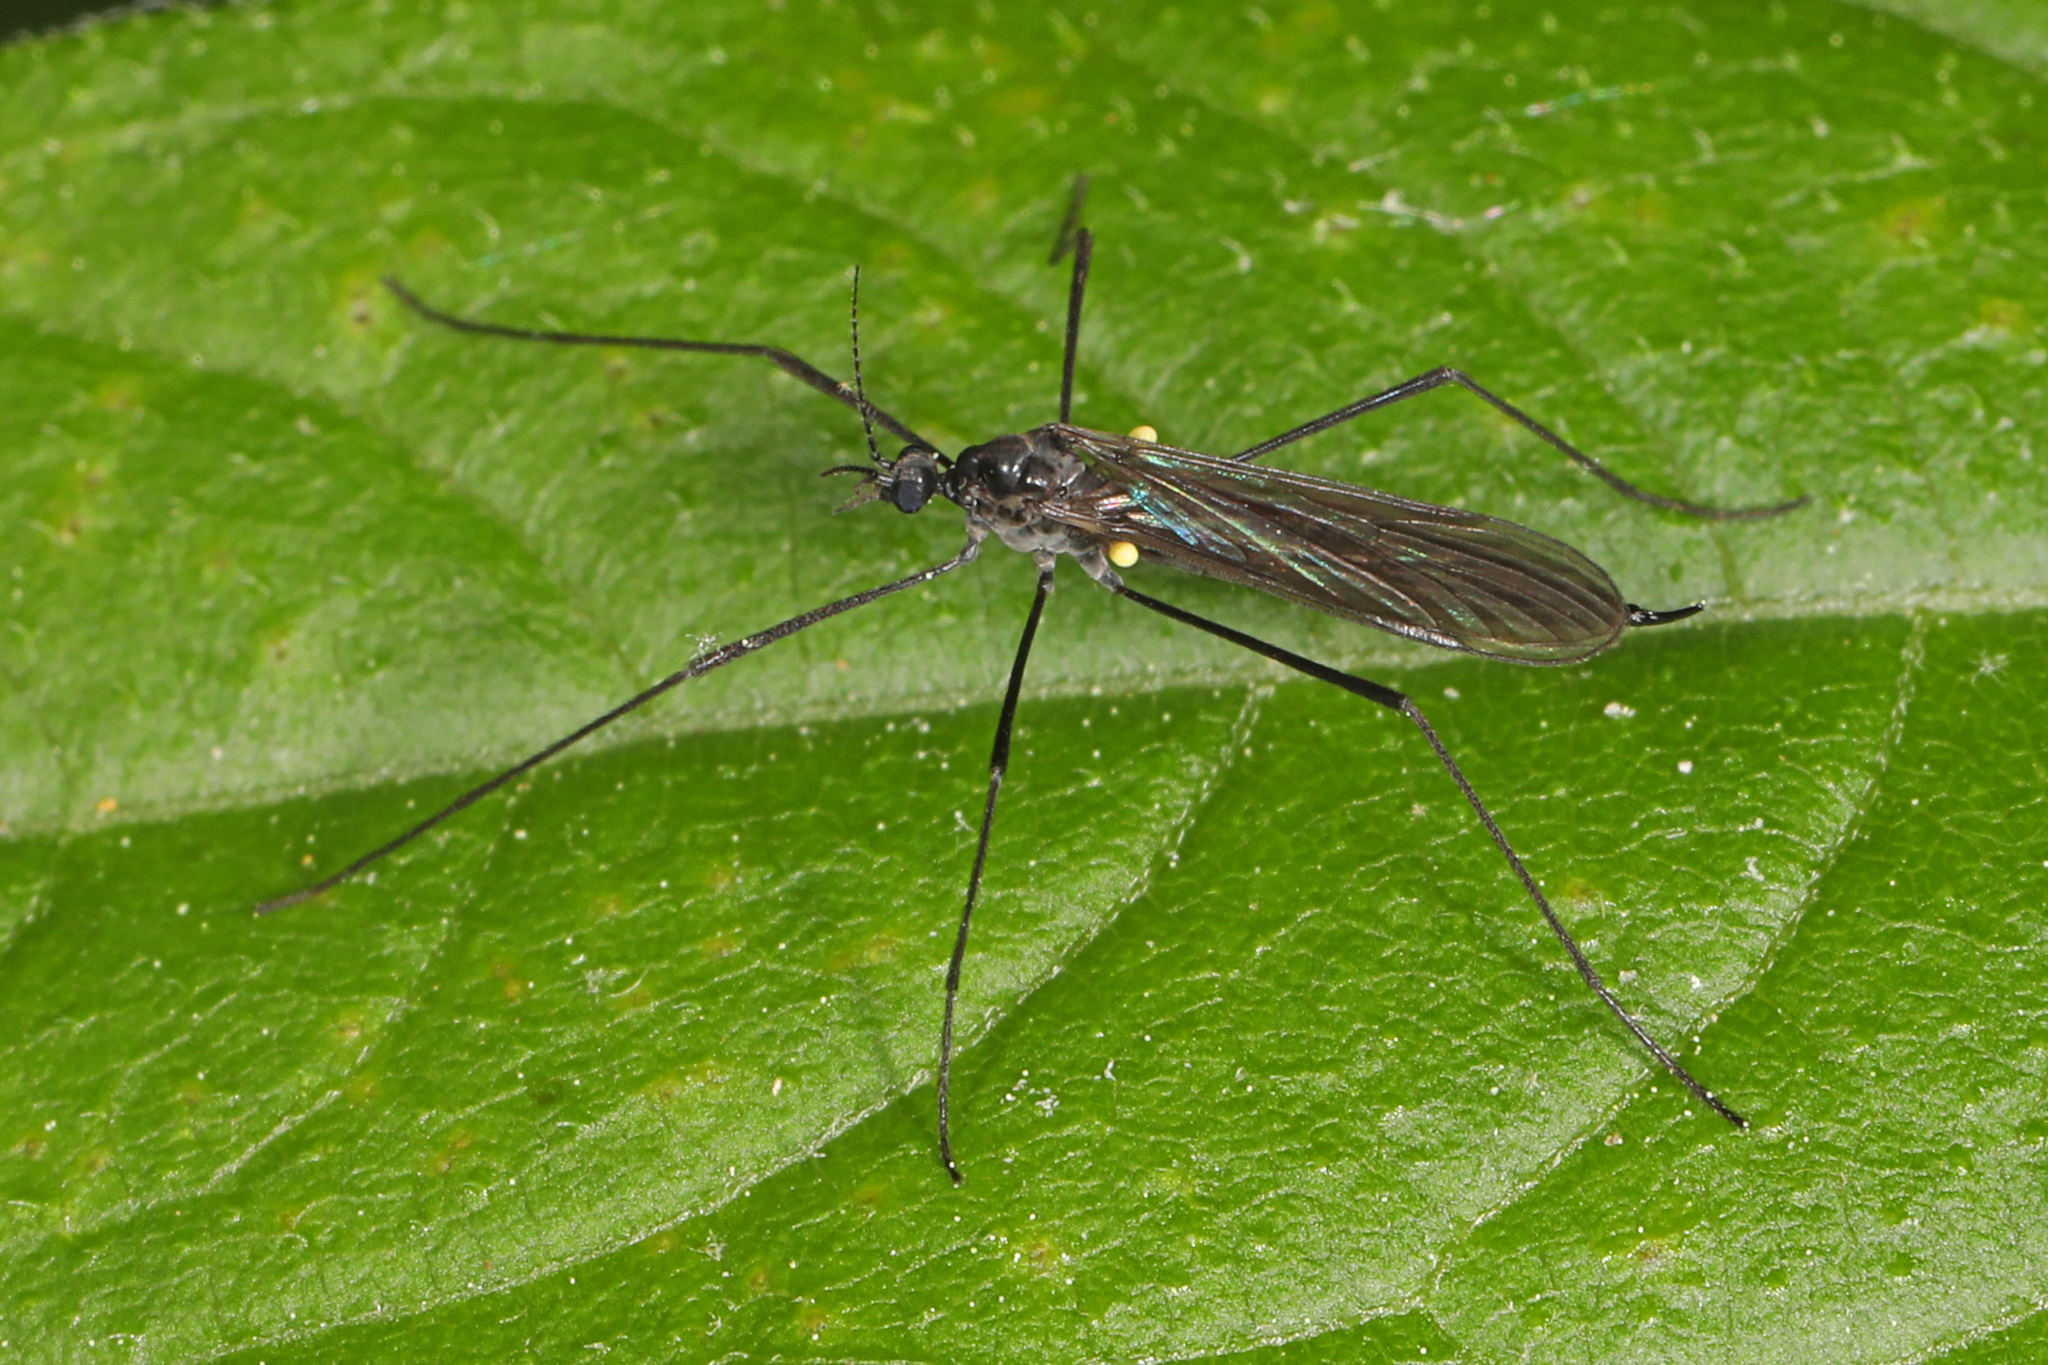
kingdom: Animalia
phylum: Arthropoda
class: Insecta
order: Diptera
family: Limoniidae
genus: Gnophomyia
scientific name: Gnophomyia tristissima
